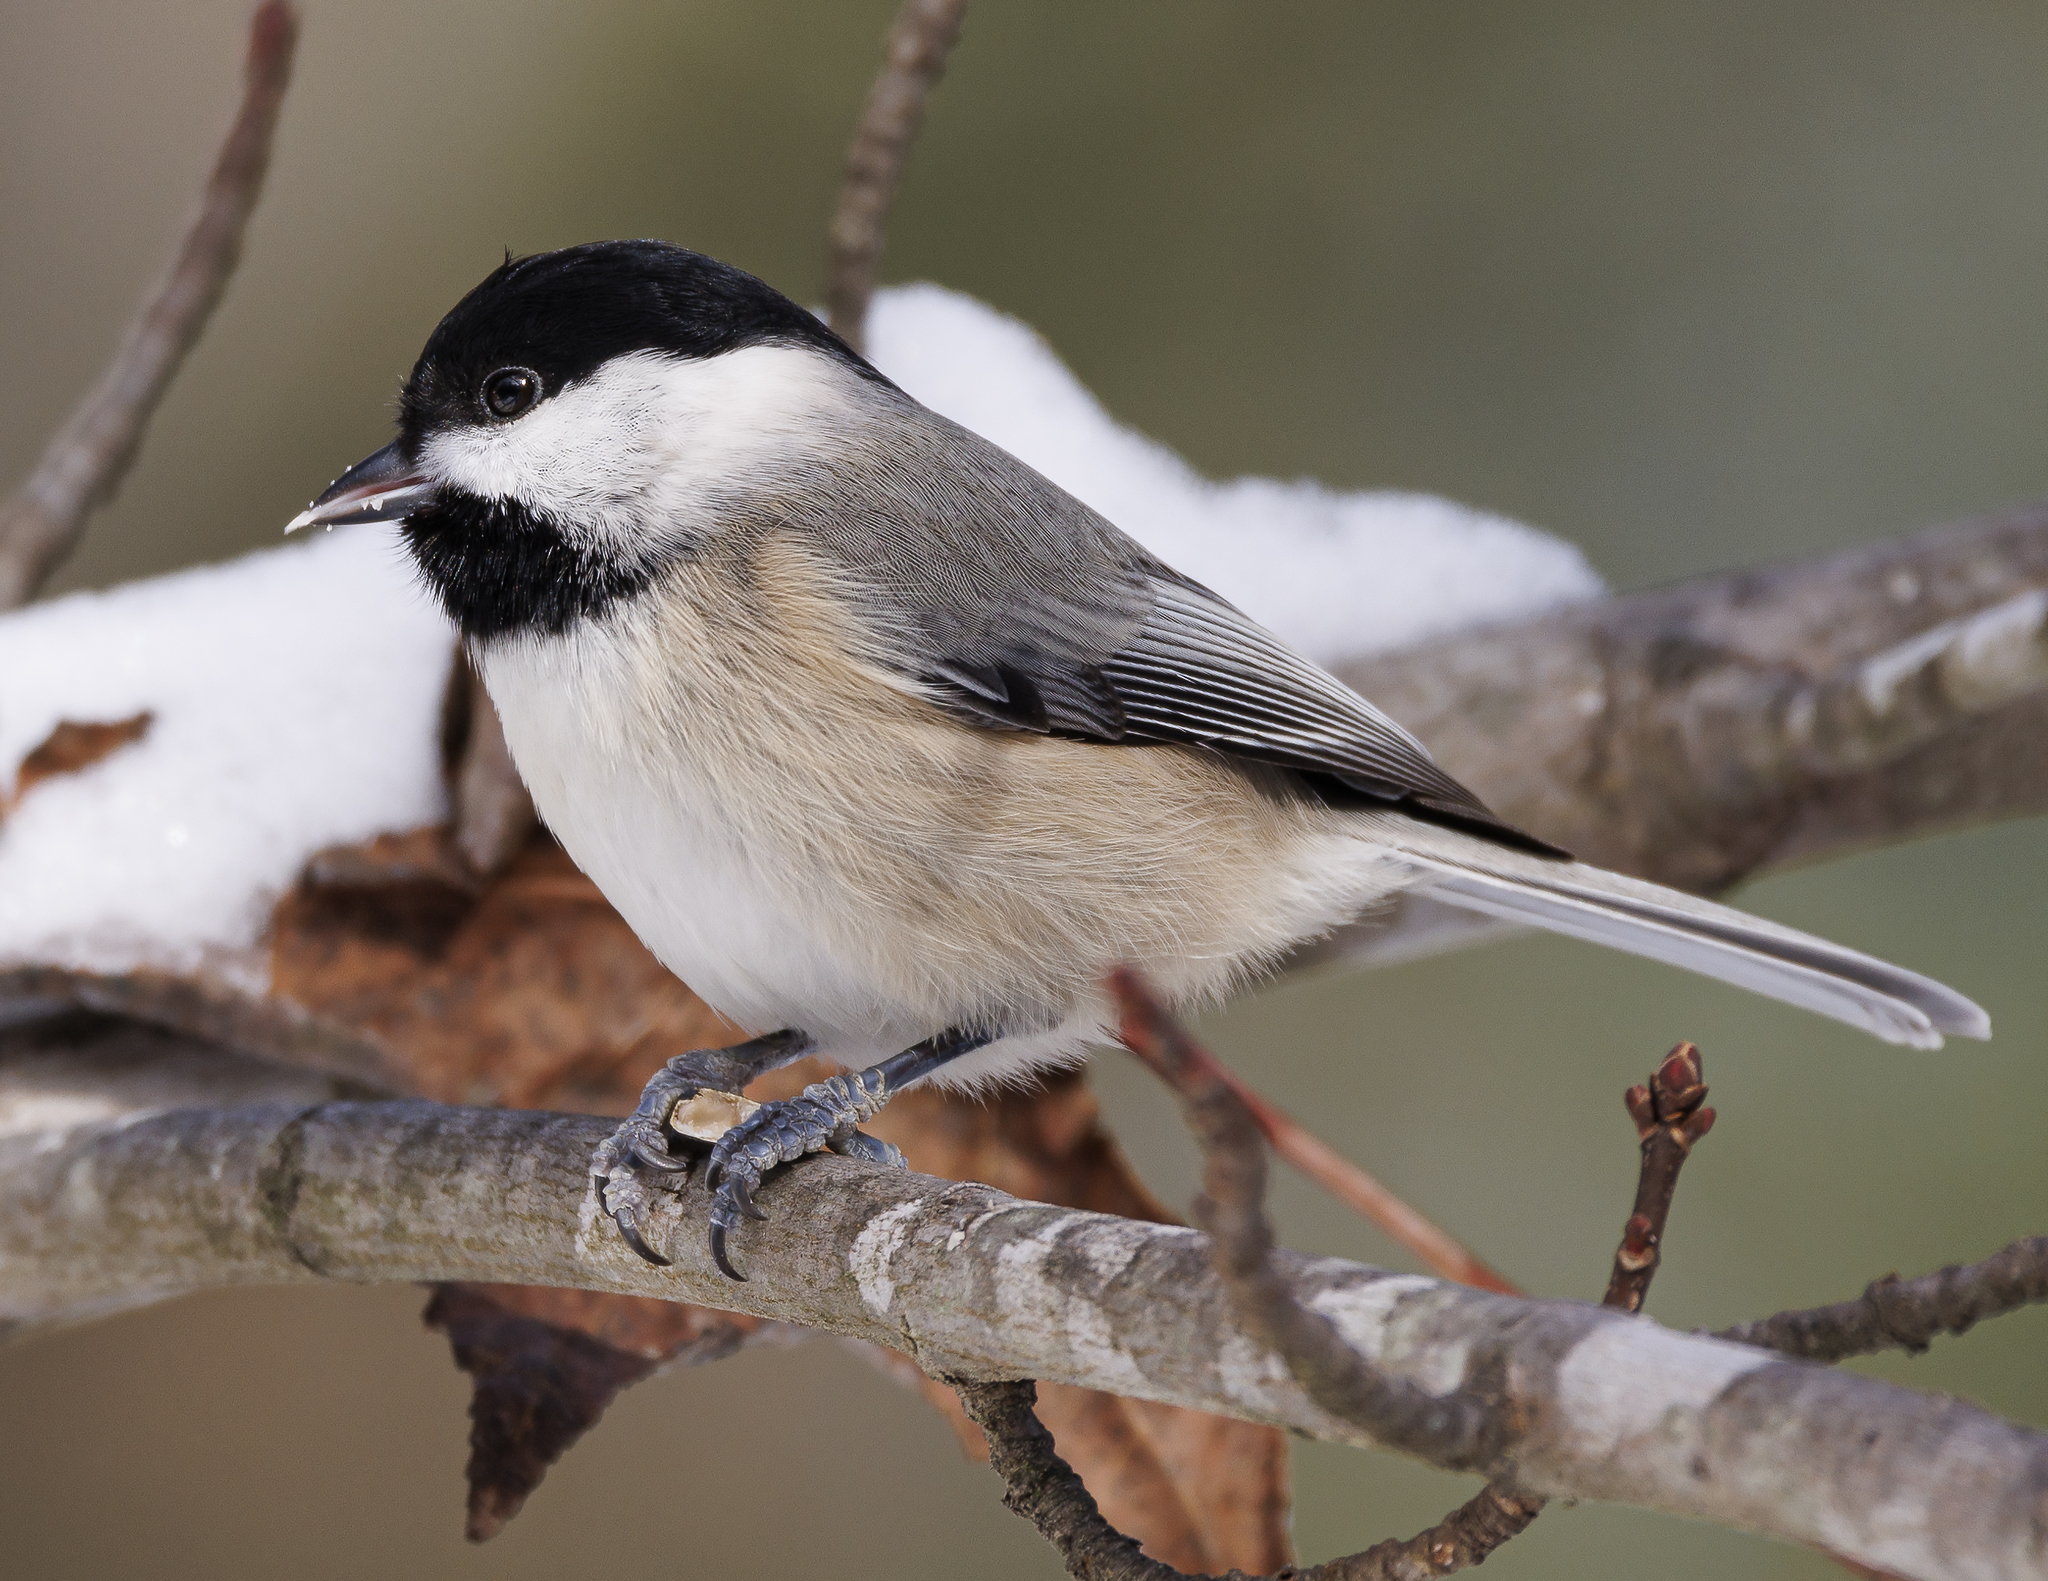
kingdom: Animalia
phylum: Chordata
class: Aves
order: Passeriformes
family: Paridae
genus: Poecile
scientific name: Poecile carolinensis
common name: Carolina chickadee
